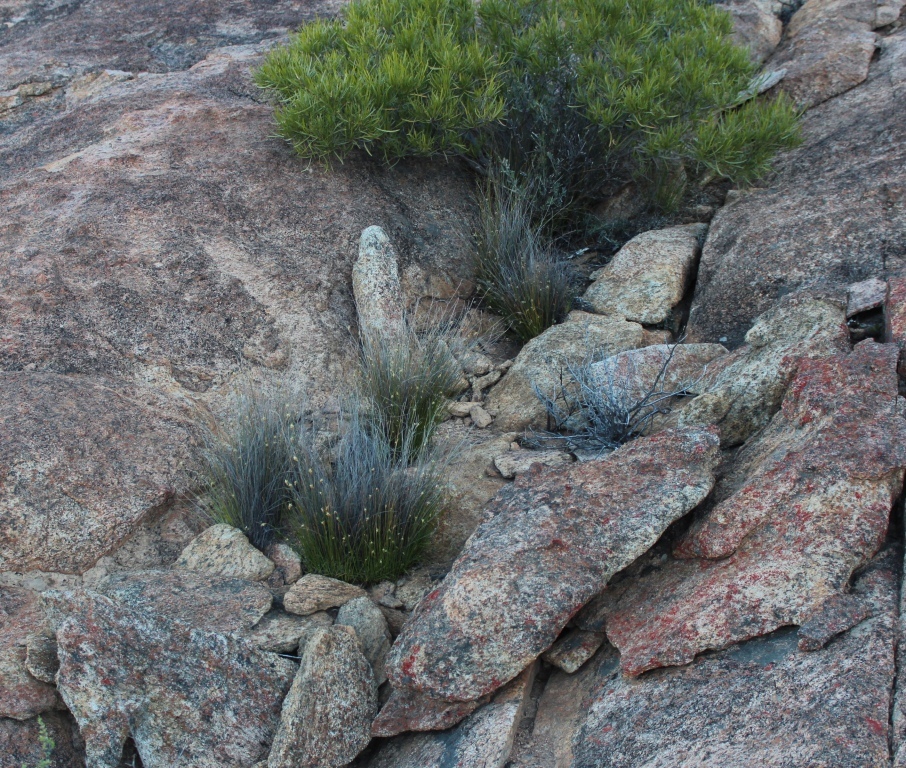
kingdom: Plantae
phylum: Tracheophyta
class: Liliopsida
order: Poales
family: Cyperaceae
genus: Ficinia
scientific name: Ficinia nigrescens
